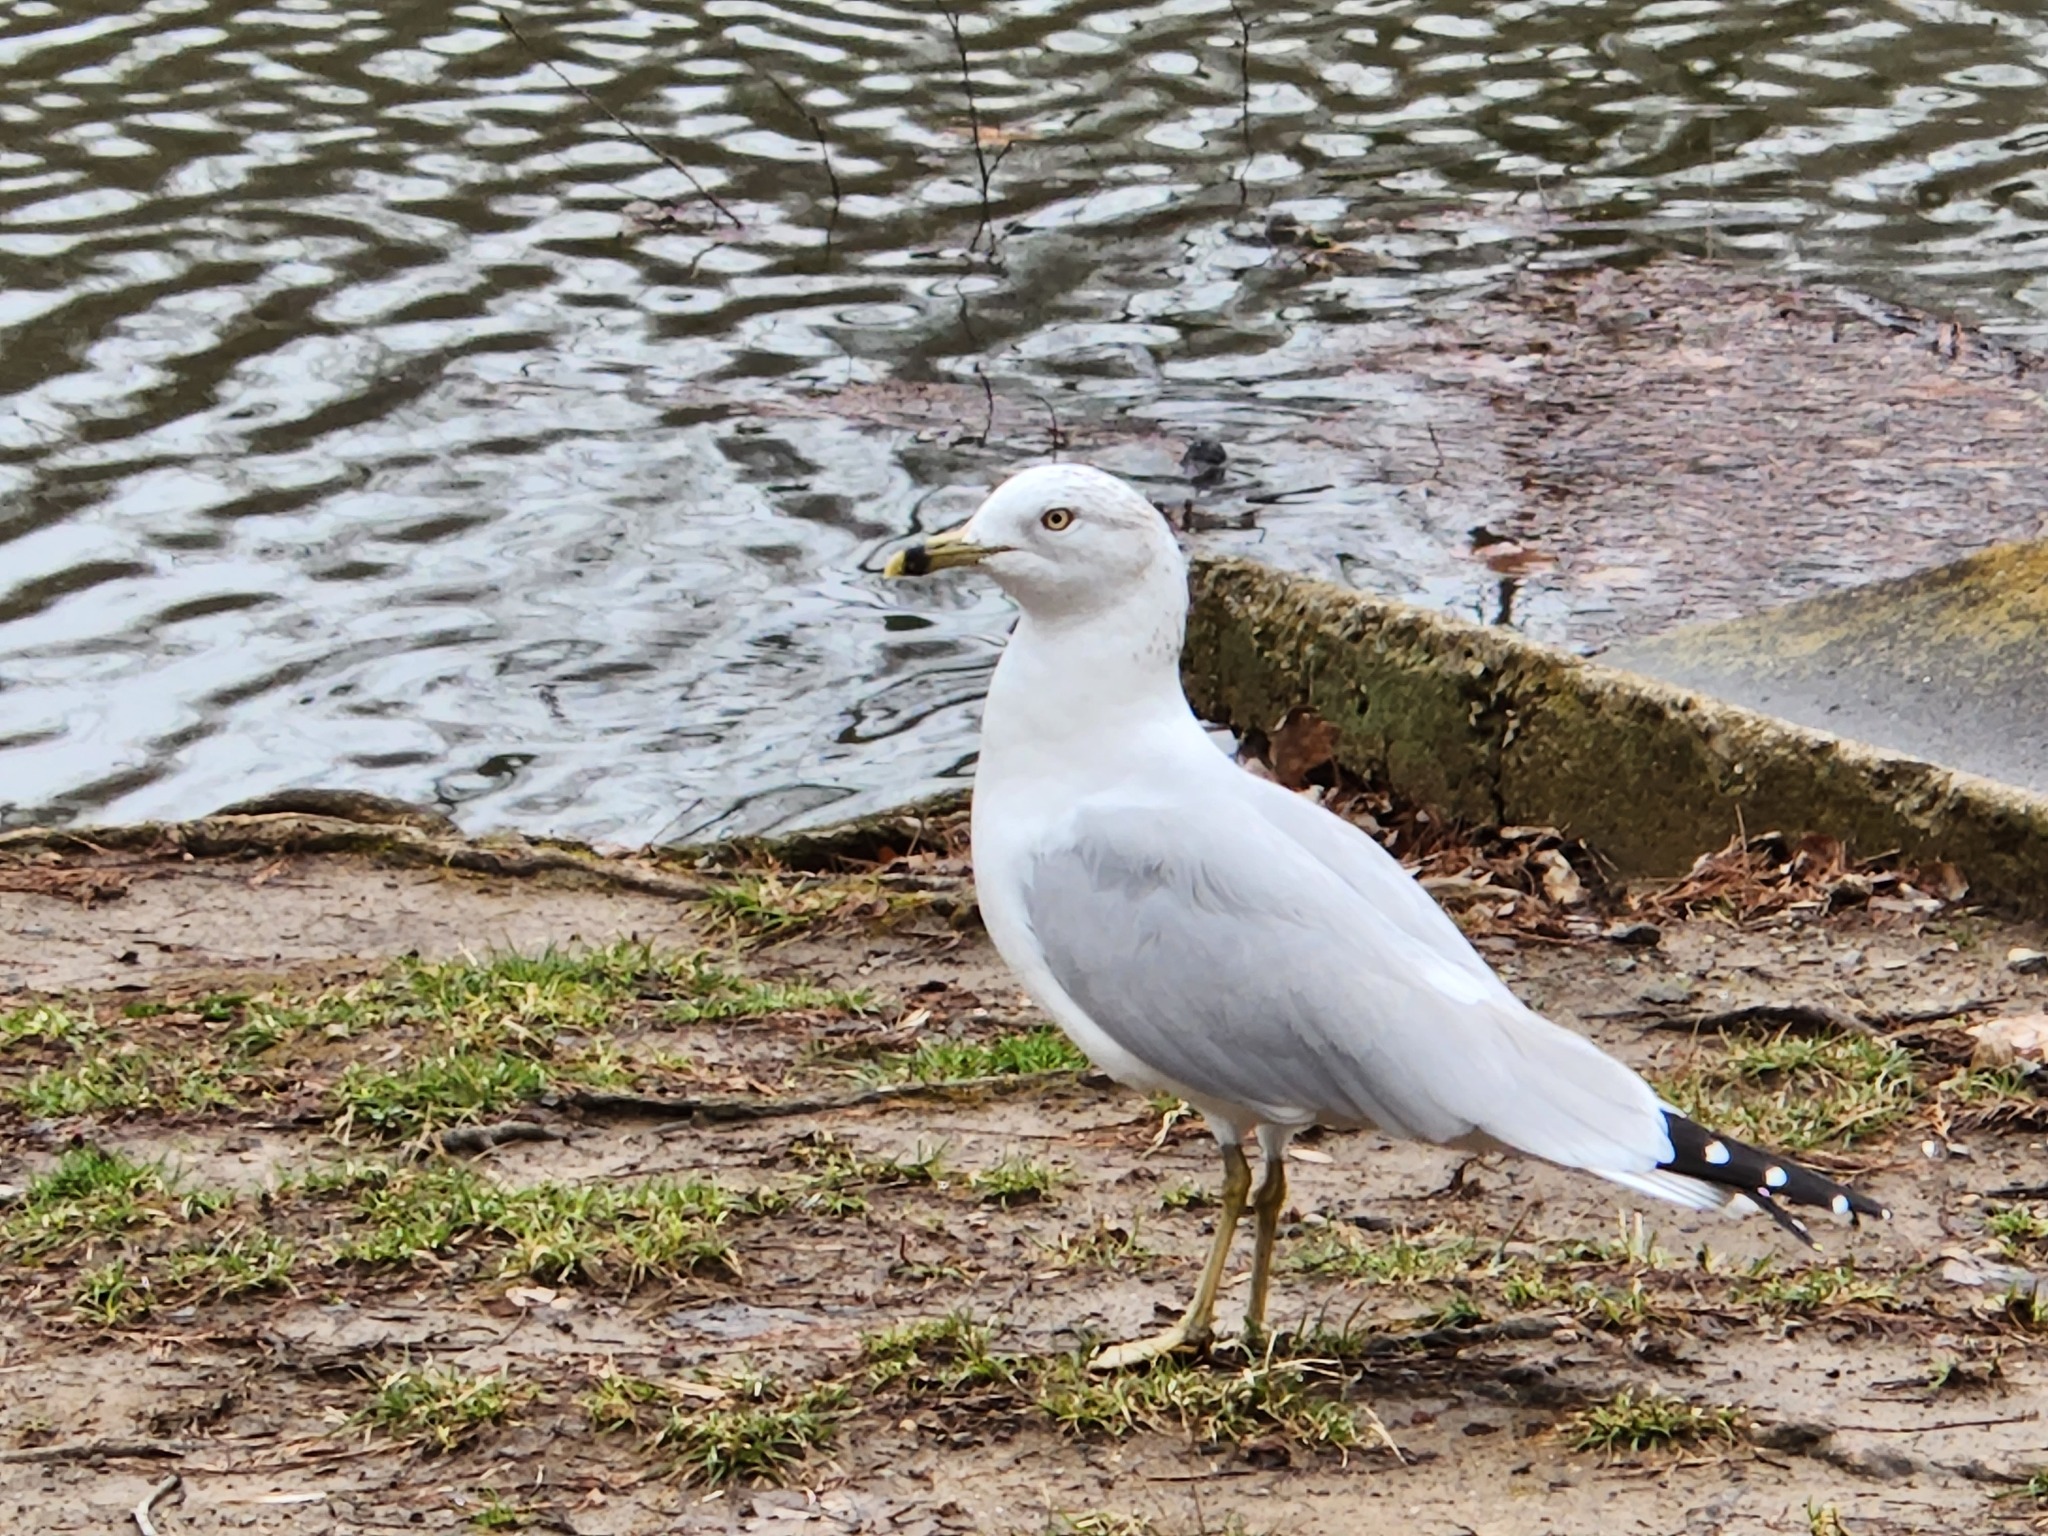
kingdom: Animalia
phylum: Chordata
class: Aves
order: Charadriiformes
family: Laridae
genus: Larus
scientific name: Larus delawarensis
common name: Ring-billed gull
